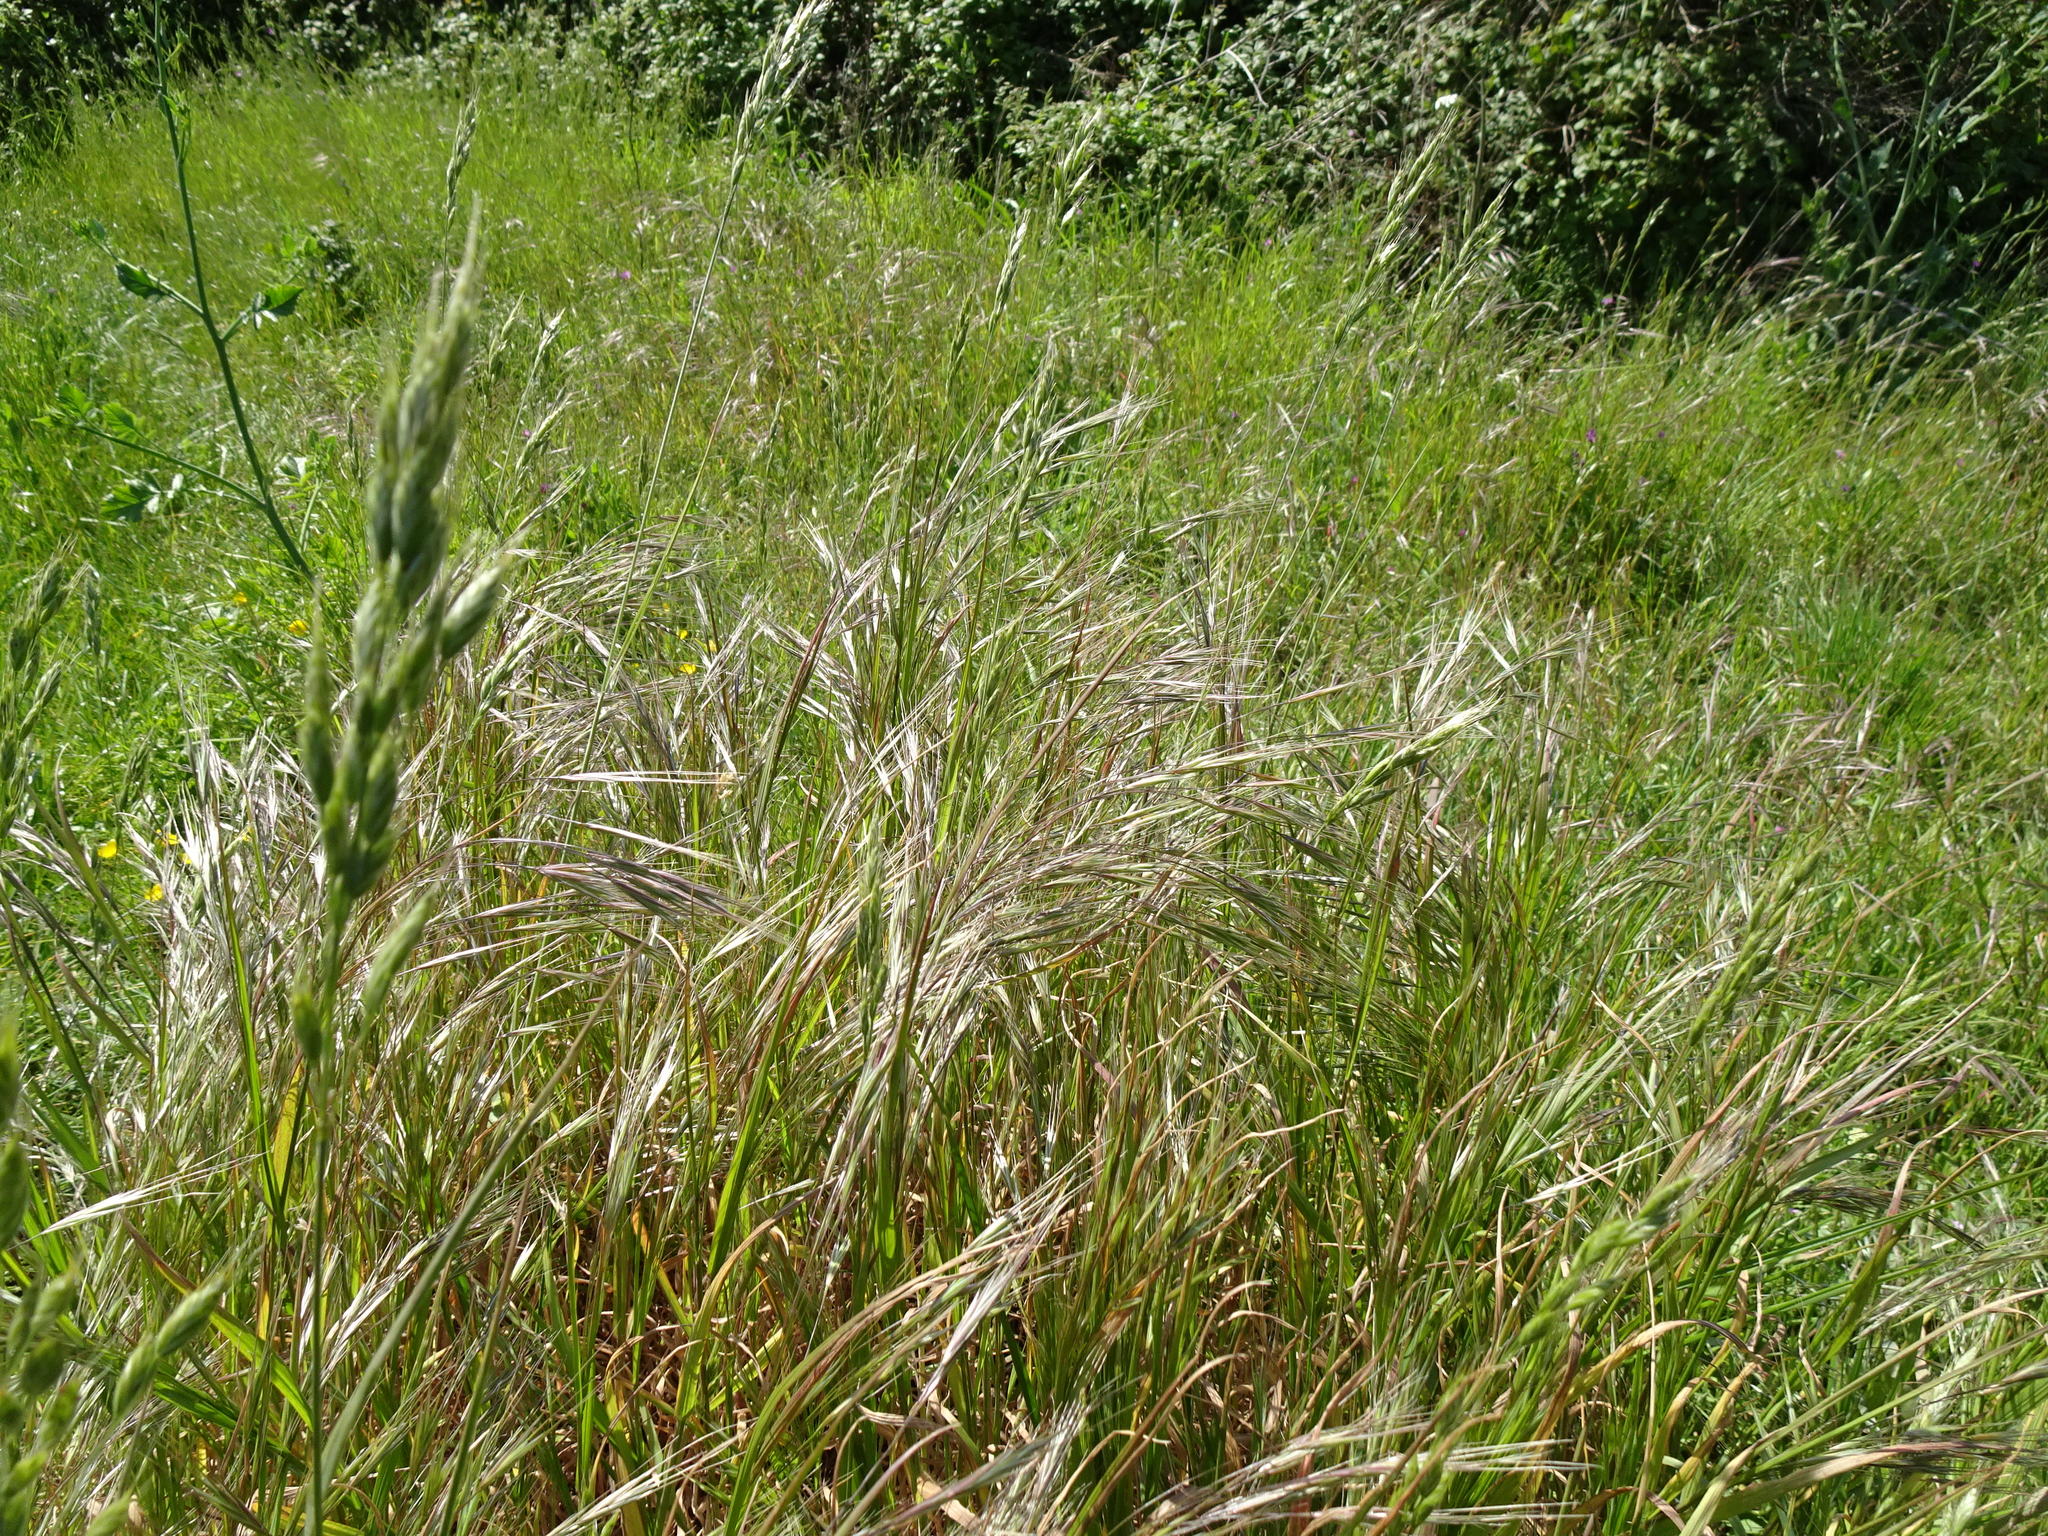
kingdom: Plantae
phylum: Tracheophyta
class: Liliopsida
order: Poales
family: Poaceae
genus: Bromus
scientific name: Bromus sterilis
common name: Poverty brome
